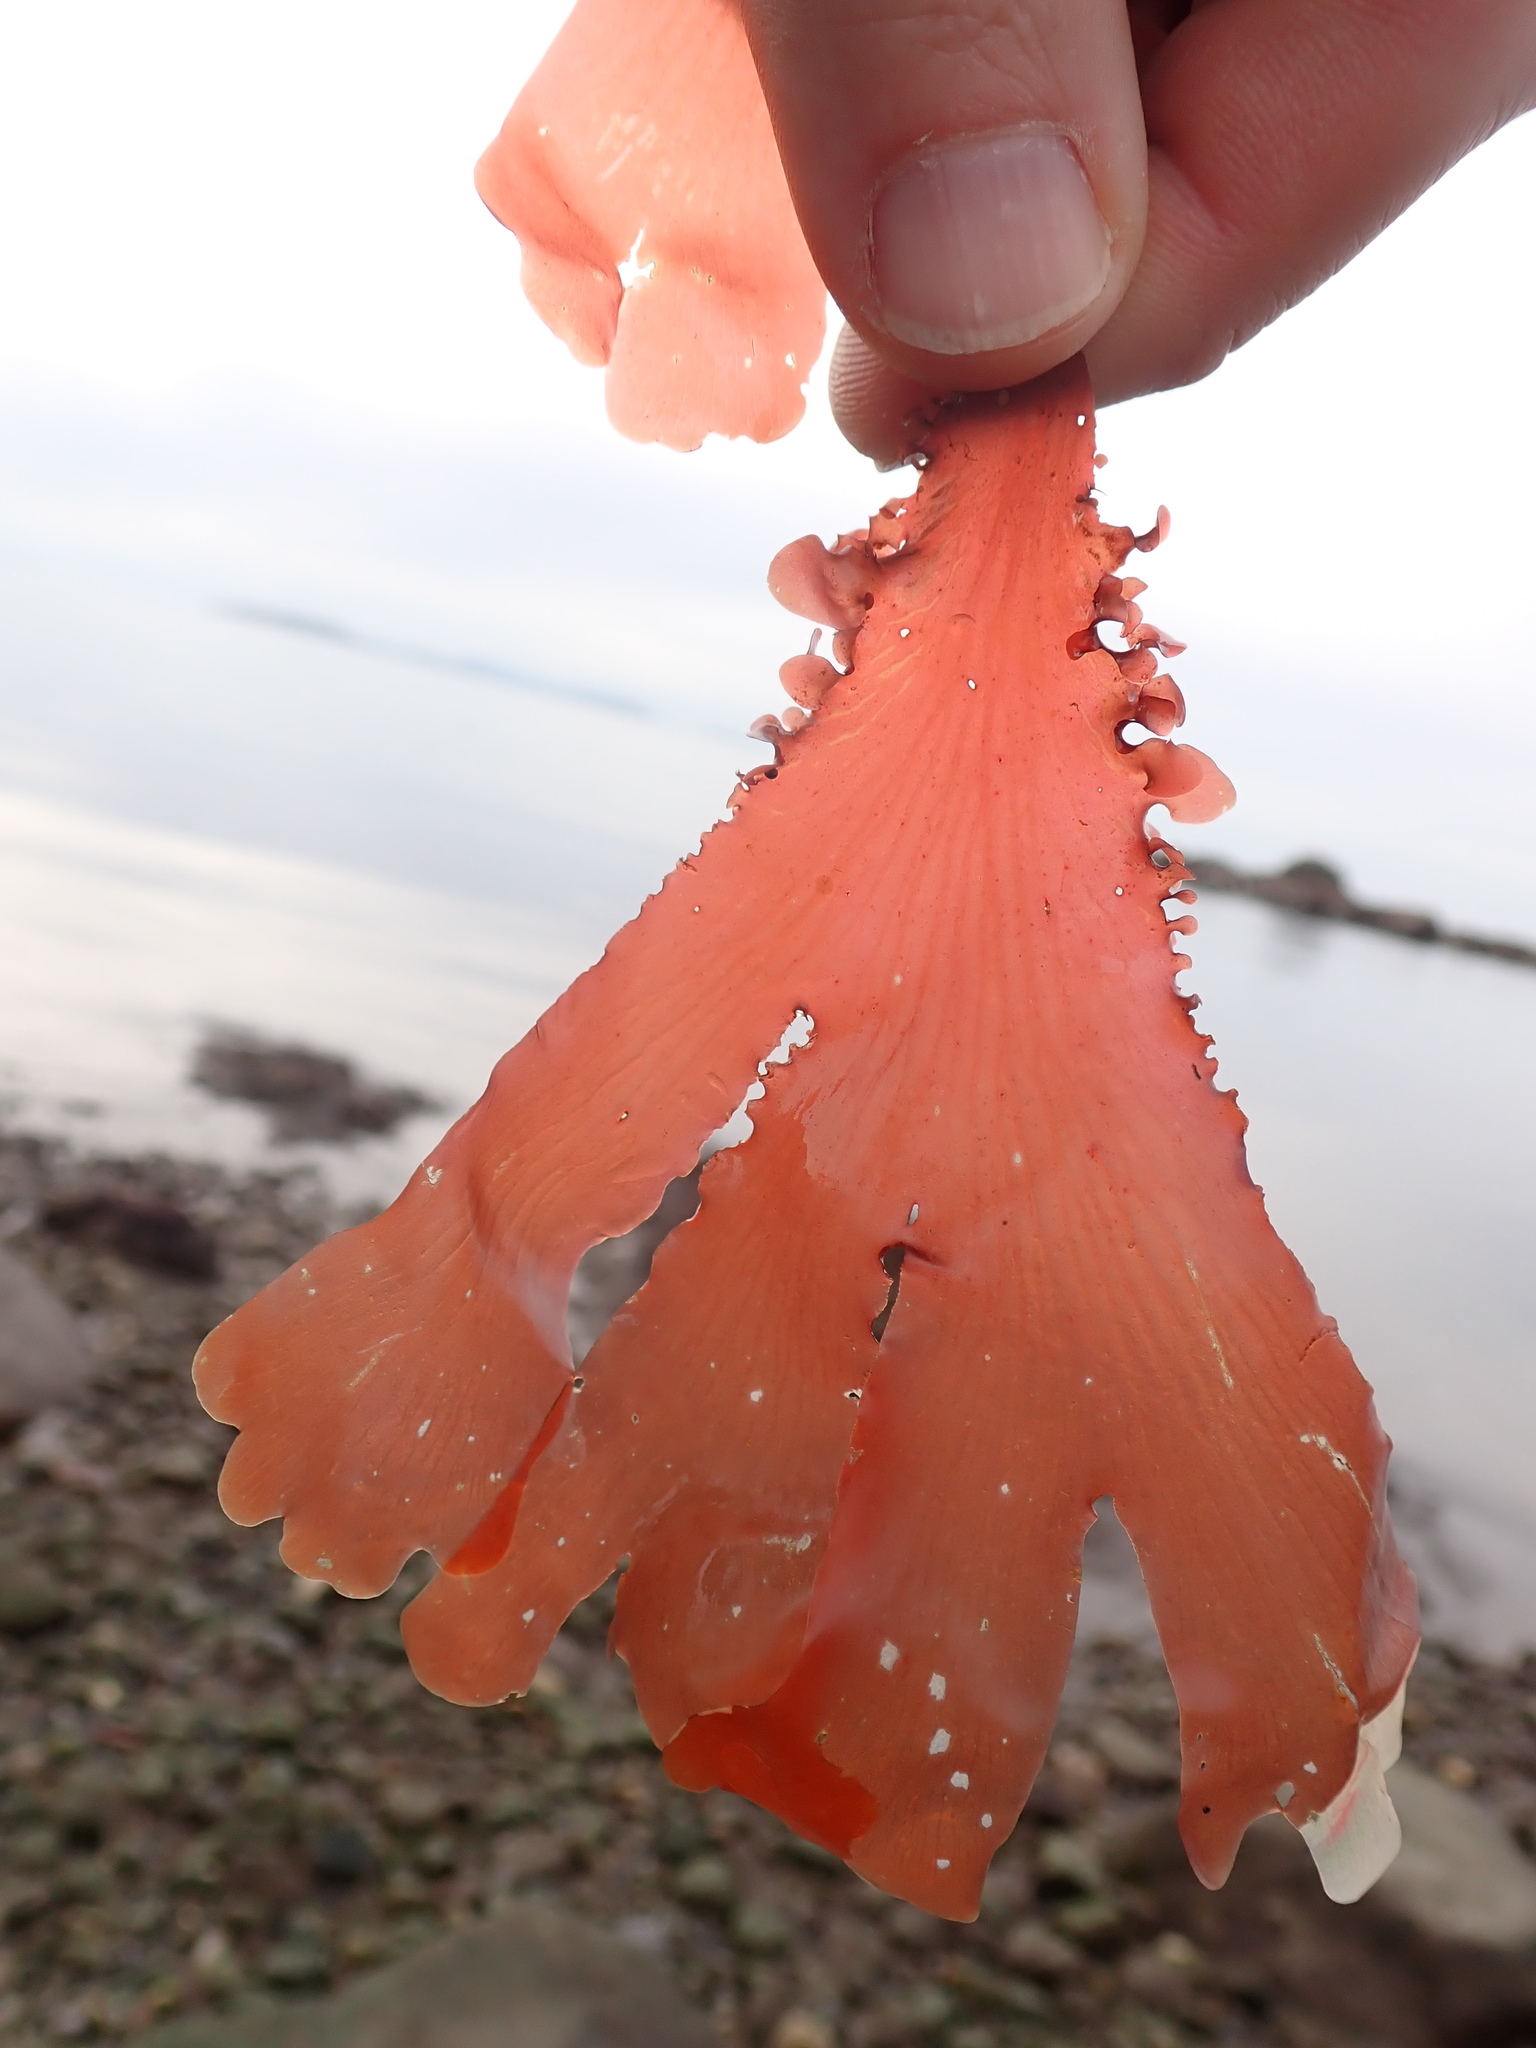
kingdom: Plantae
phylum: Rhodophyta
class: Florideophyceae
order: Ceramiales
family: Delesseriaceae
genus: Cryptopleura
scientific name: Cryptopleura ruprechtiana
